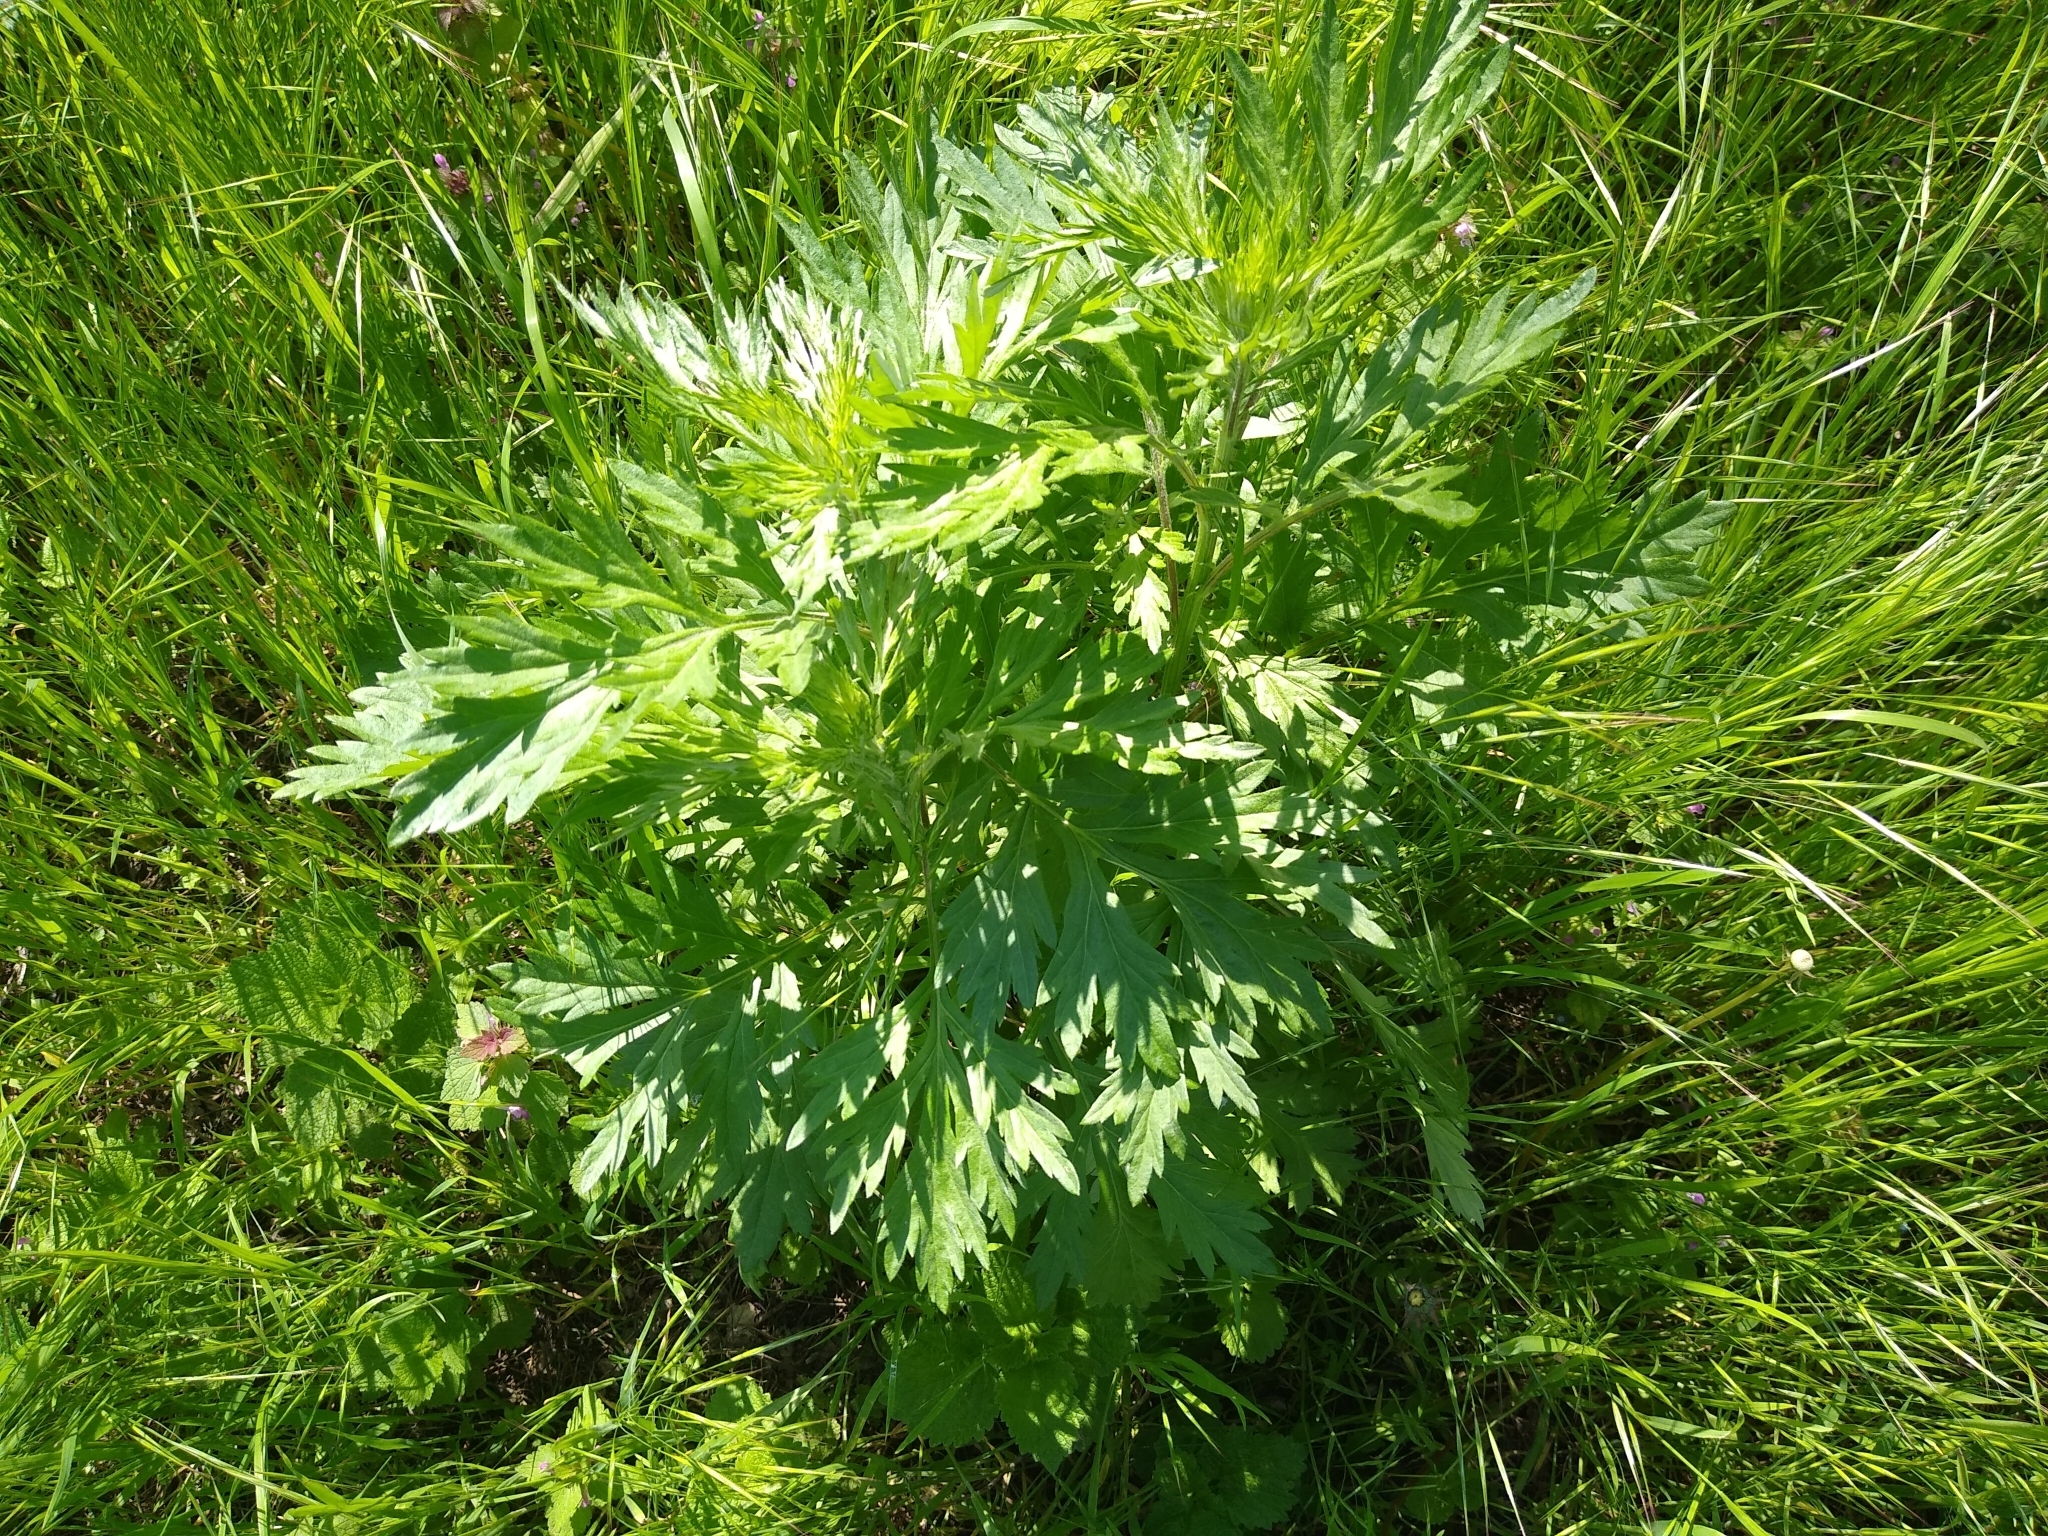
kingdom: Plantae
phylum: Tracheophyta
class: Magnoliopsida
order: Asterales
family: Asteraceae
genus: Artemisia
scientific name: Artemisia absinthium
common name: Wormwood
